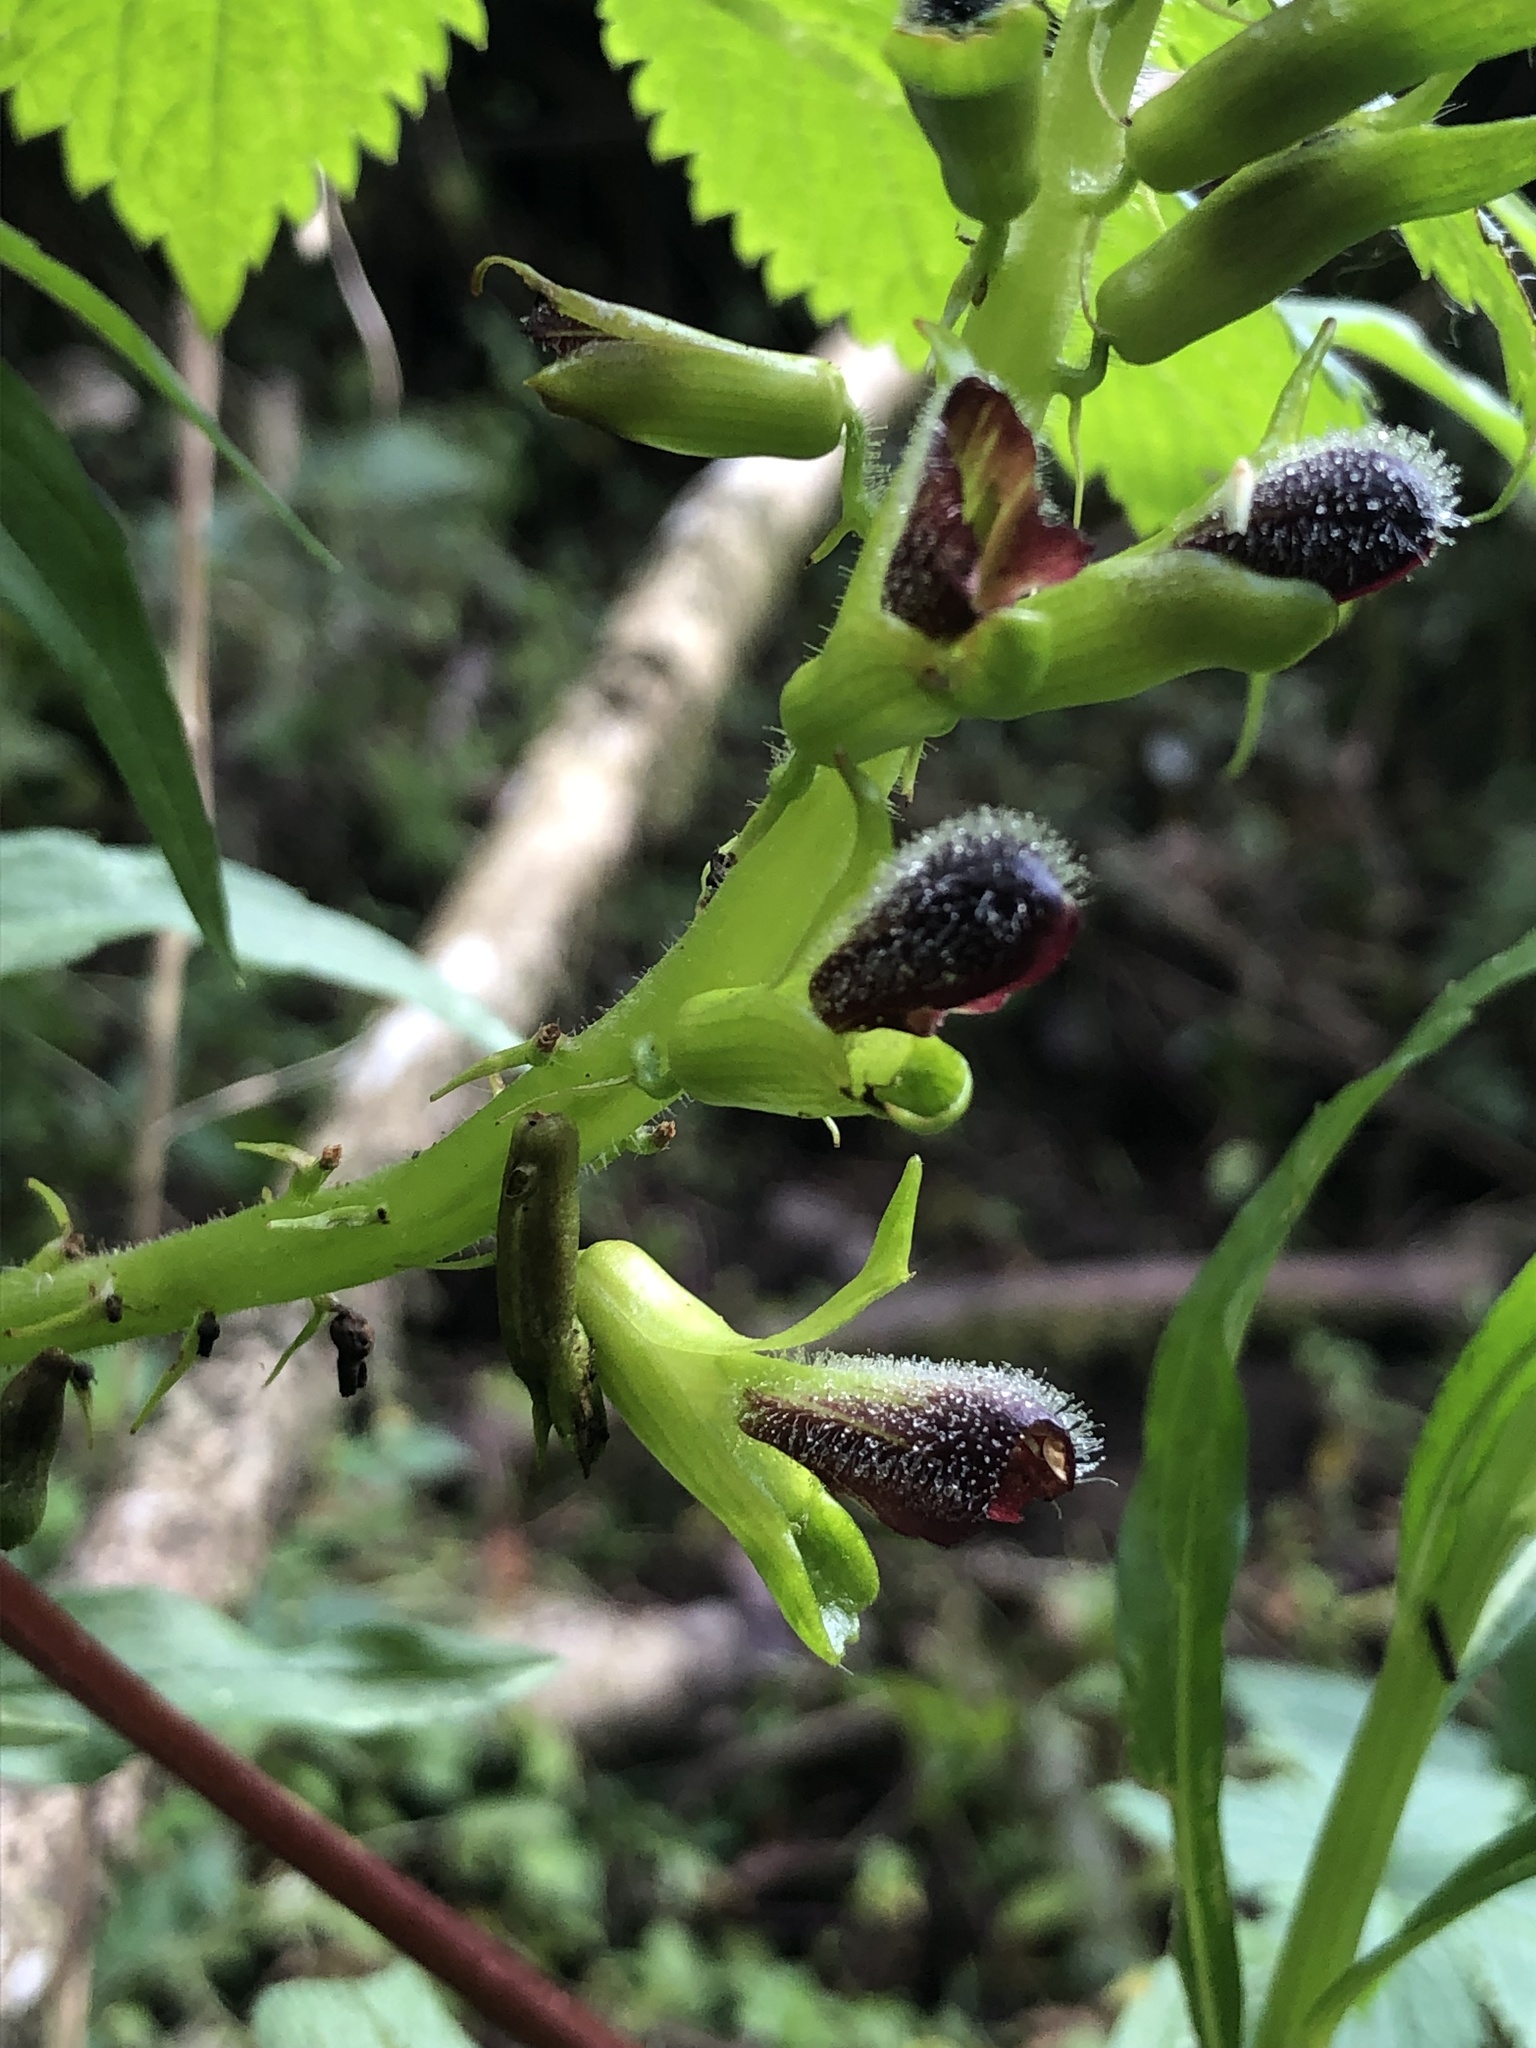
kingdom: Plantae
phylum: Tracheophyta
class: Magnoliopsida
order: Lamiales
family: Bignoniaceae
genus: Tourrettia
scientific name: Tourrettia lappacea
